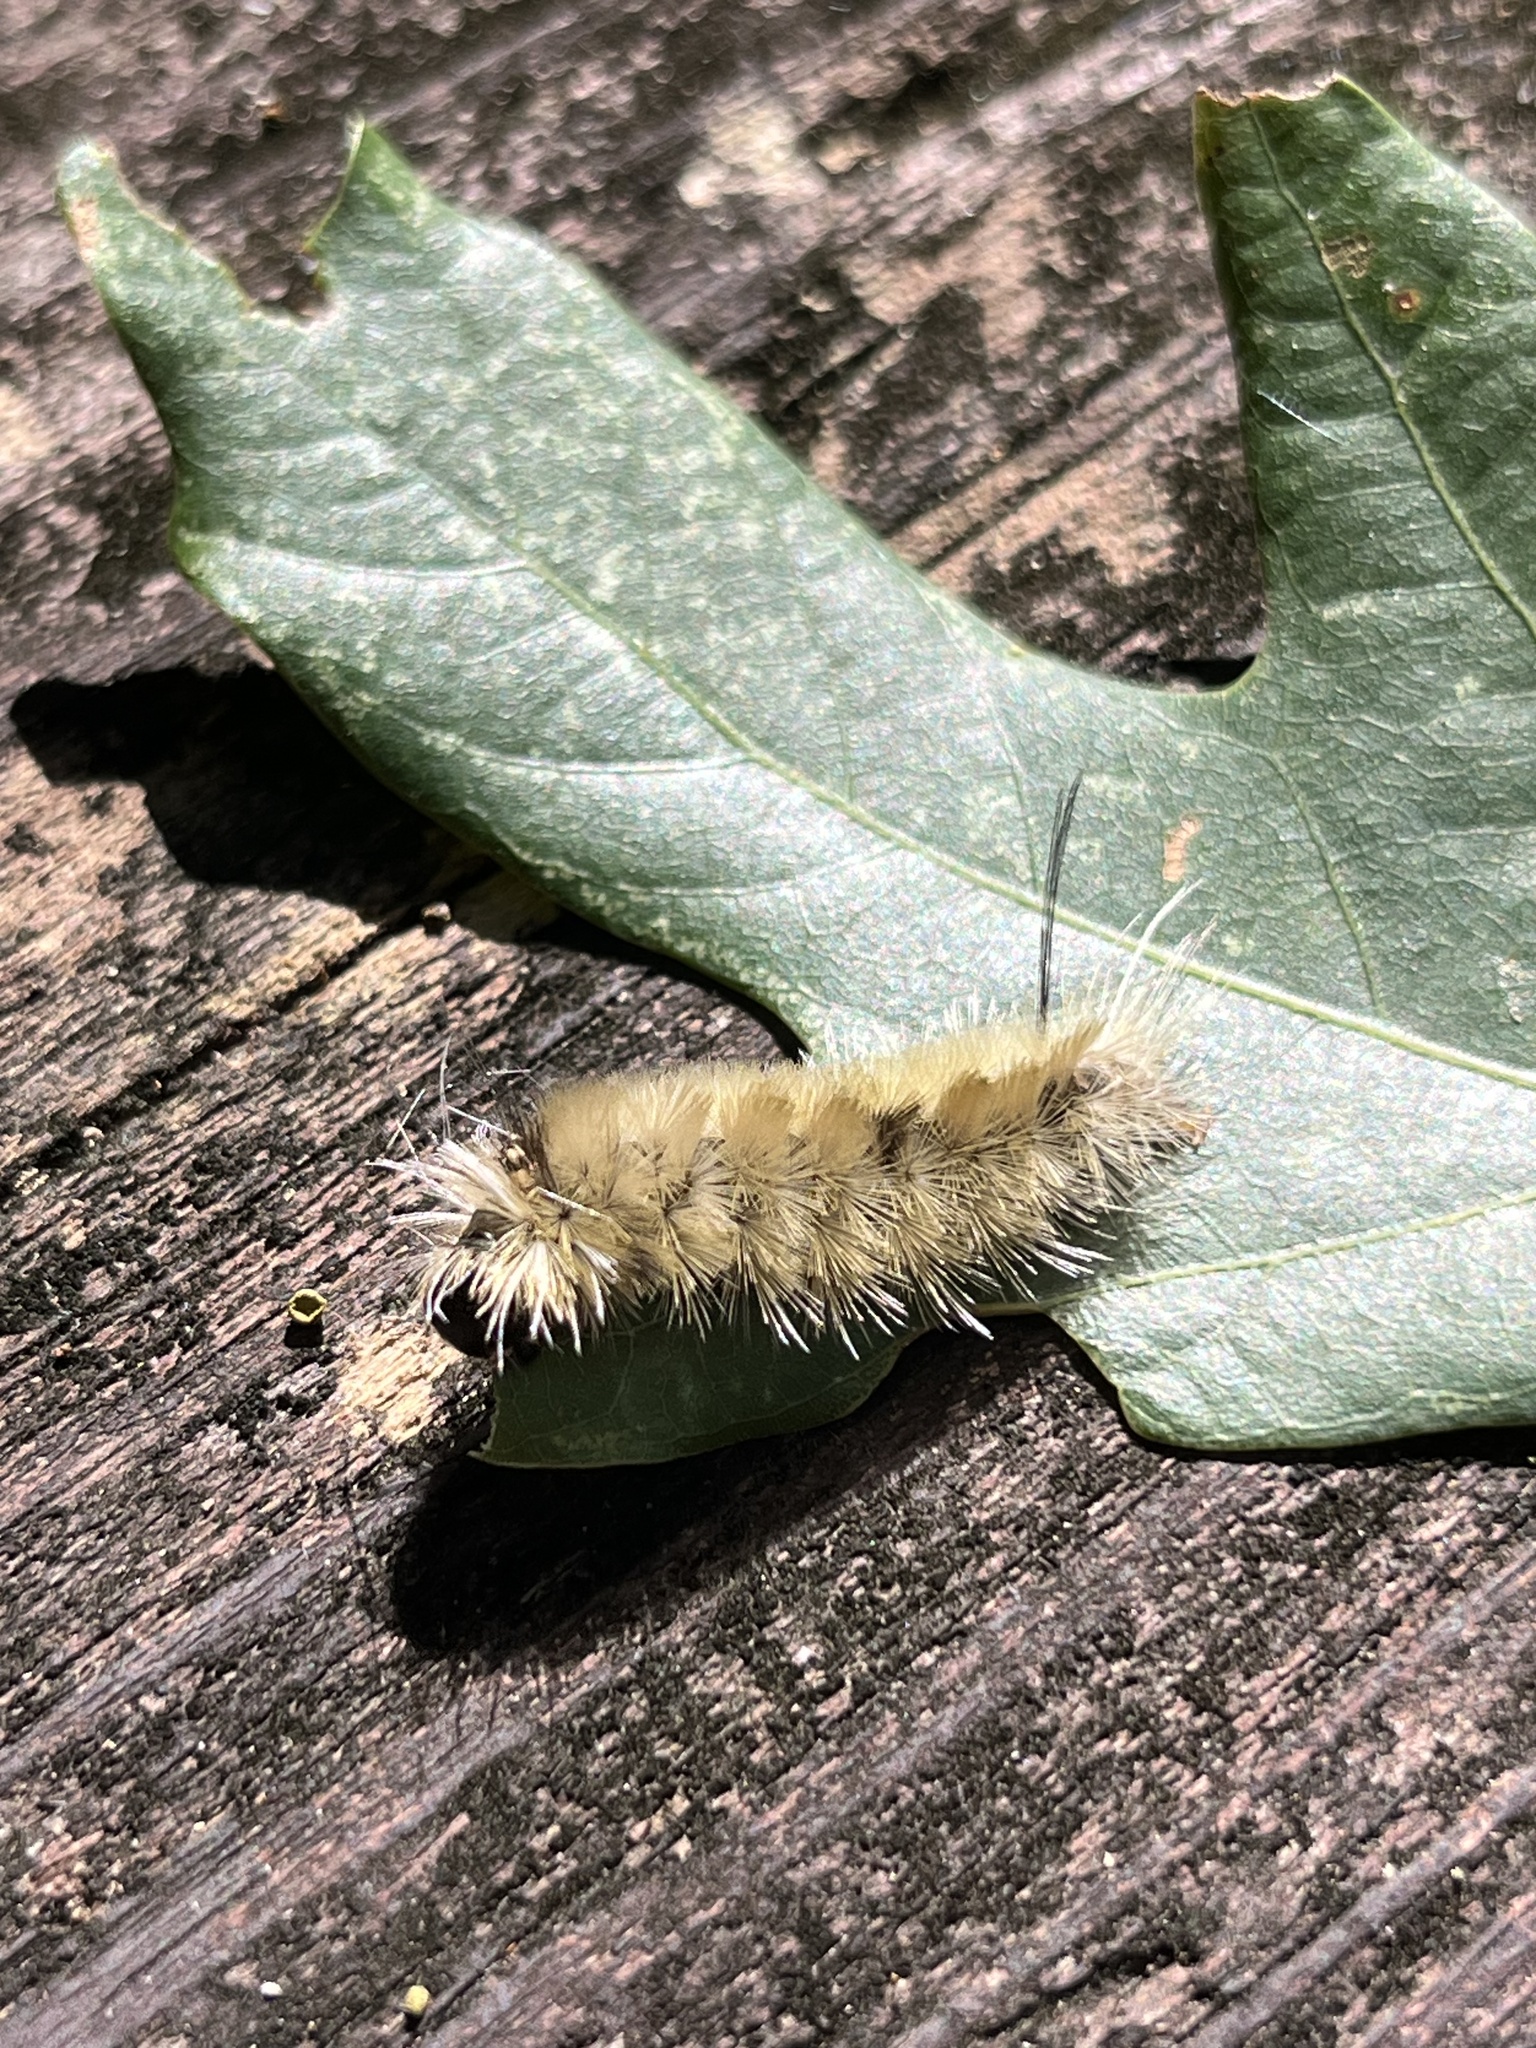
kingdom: Animalia
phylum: Arthropoda
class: Insecta
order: Lepidoptera
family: Erebidae
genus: Halysidota
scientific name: Halysidota tessellaris
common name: Banded tussock moth
